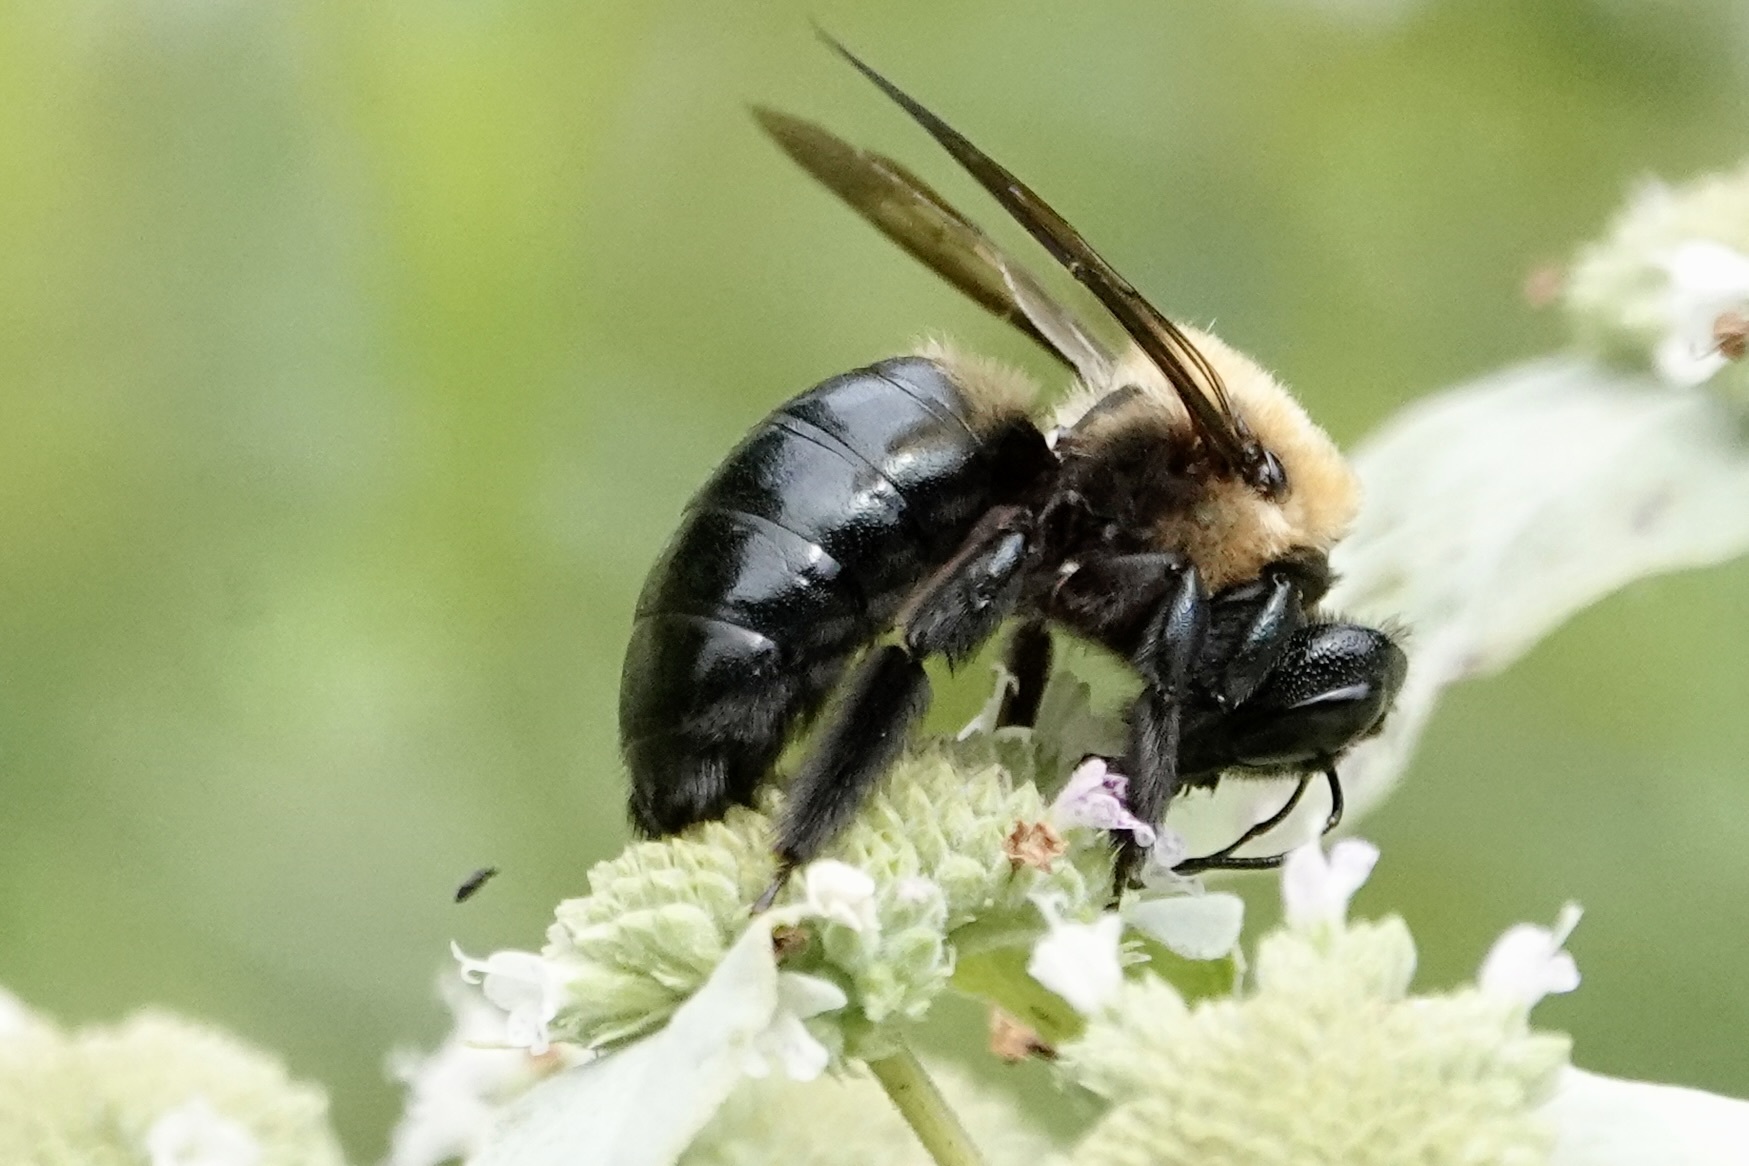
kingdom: Animalia
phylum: Arthropoda
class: Insecta
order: Hymenoptera
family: Apidae
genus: Xylocopa
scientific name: Xylocopa virginica
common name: Carpenter bee
